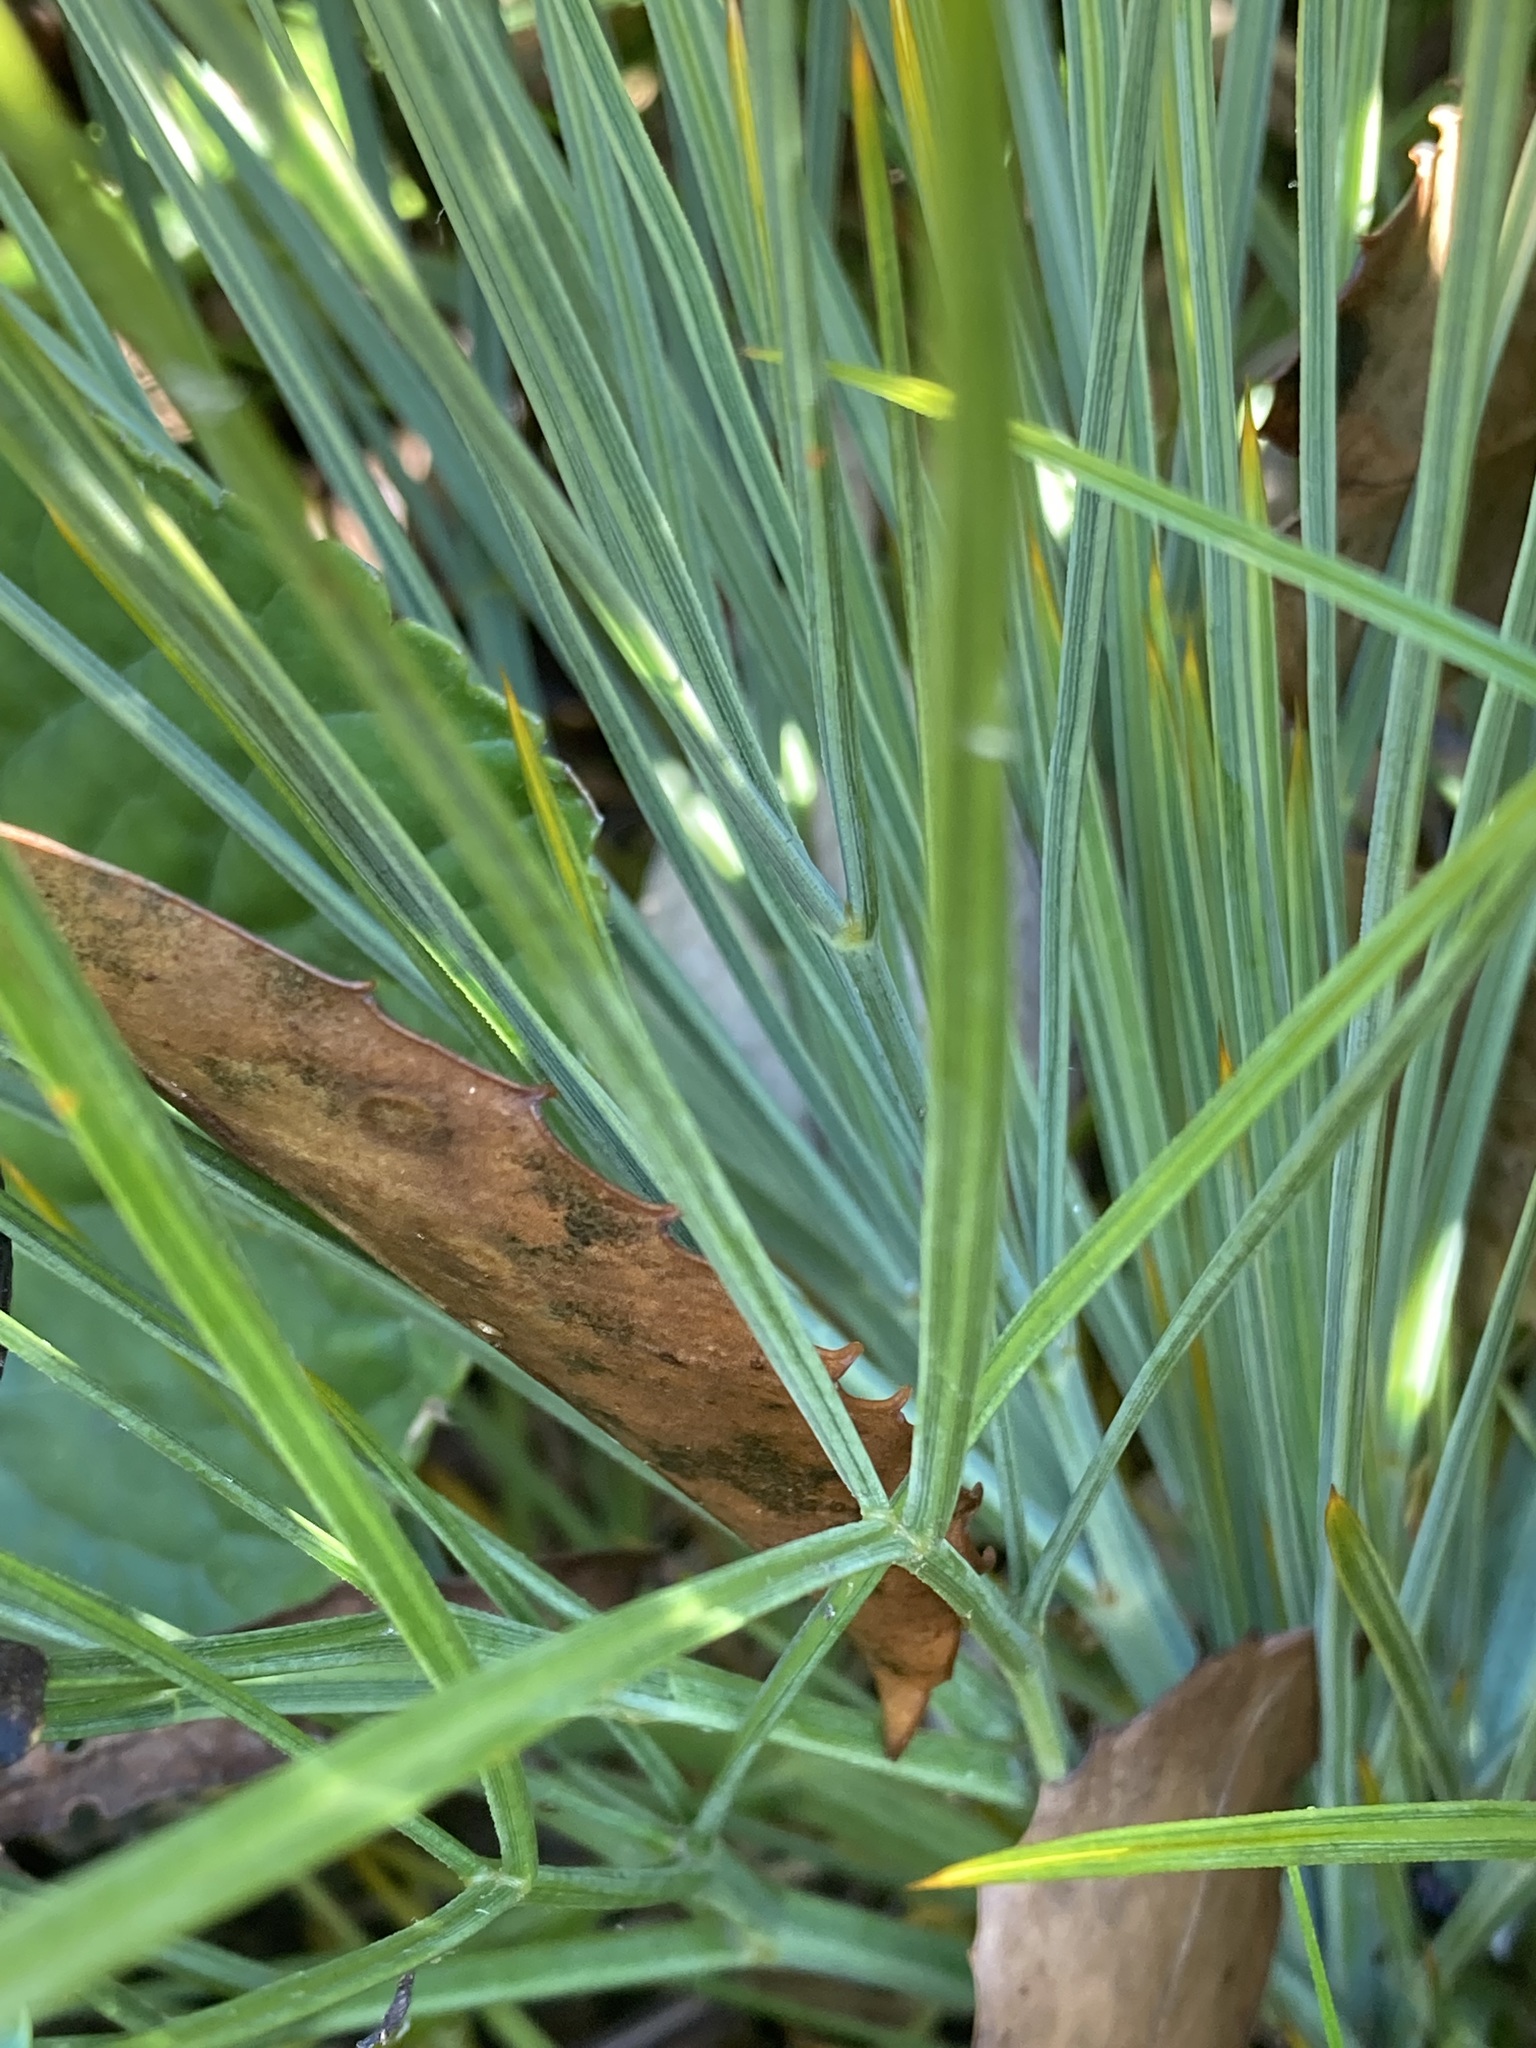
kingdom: Plantae
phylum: Tracheophyta
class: Magnoliopsida
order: Apiales
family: Apiaceae
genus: Aciphylla
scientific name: Aciphylla squarrosa
